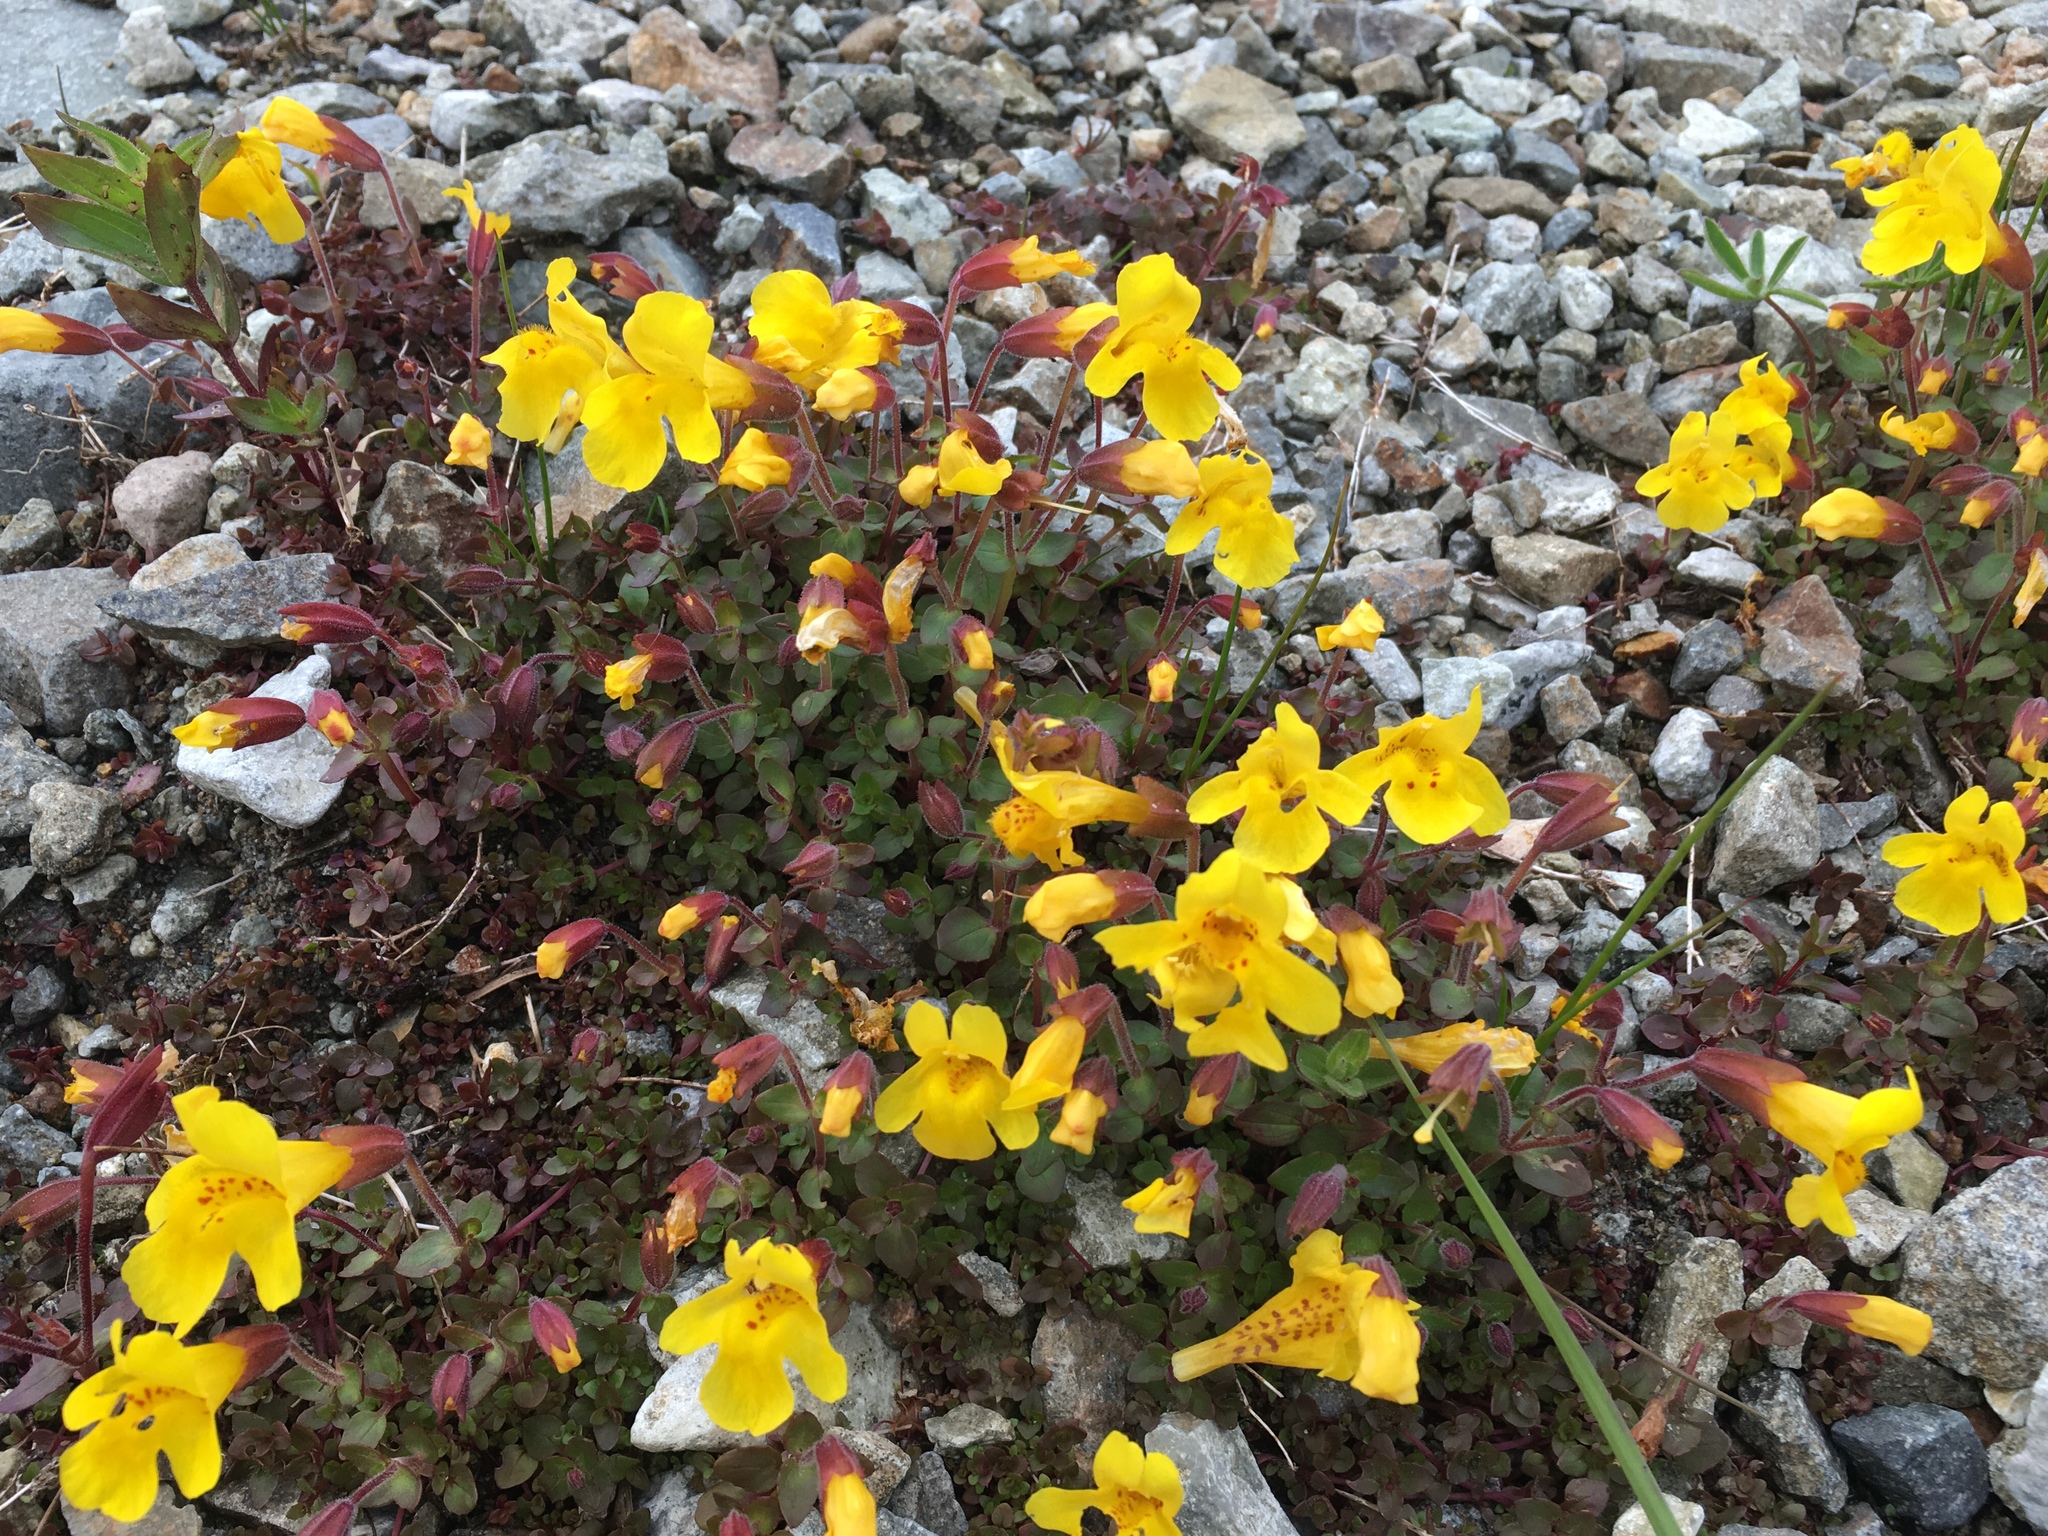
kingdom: Plantae
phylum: Tracheophyta
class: Magnoliopsida
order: Lamiales
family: Phrymaceae
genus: Erythranthe
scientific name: Erythranthe caespitosa
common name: Subalpine monkeyflower
